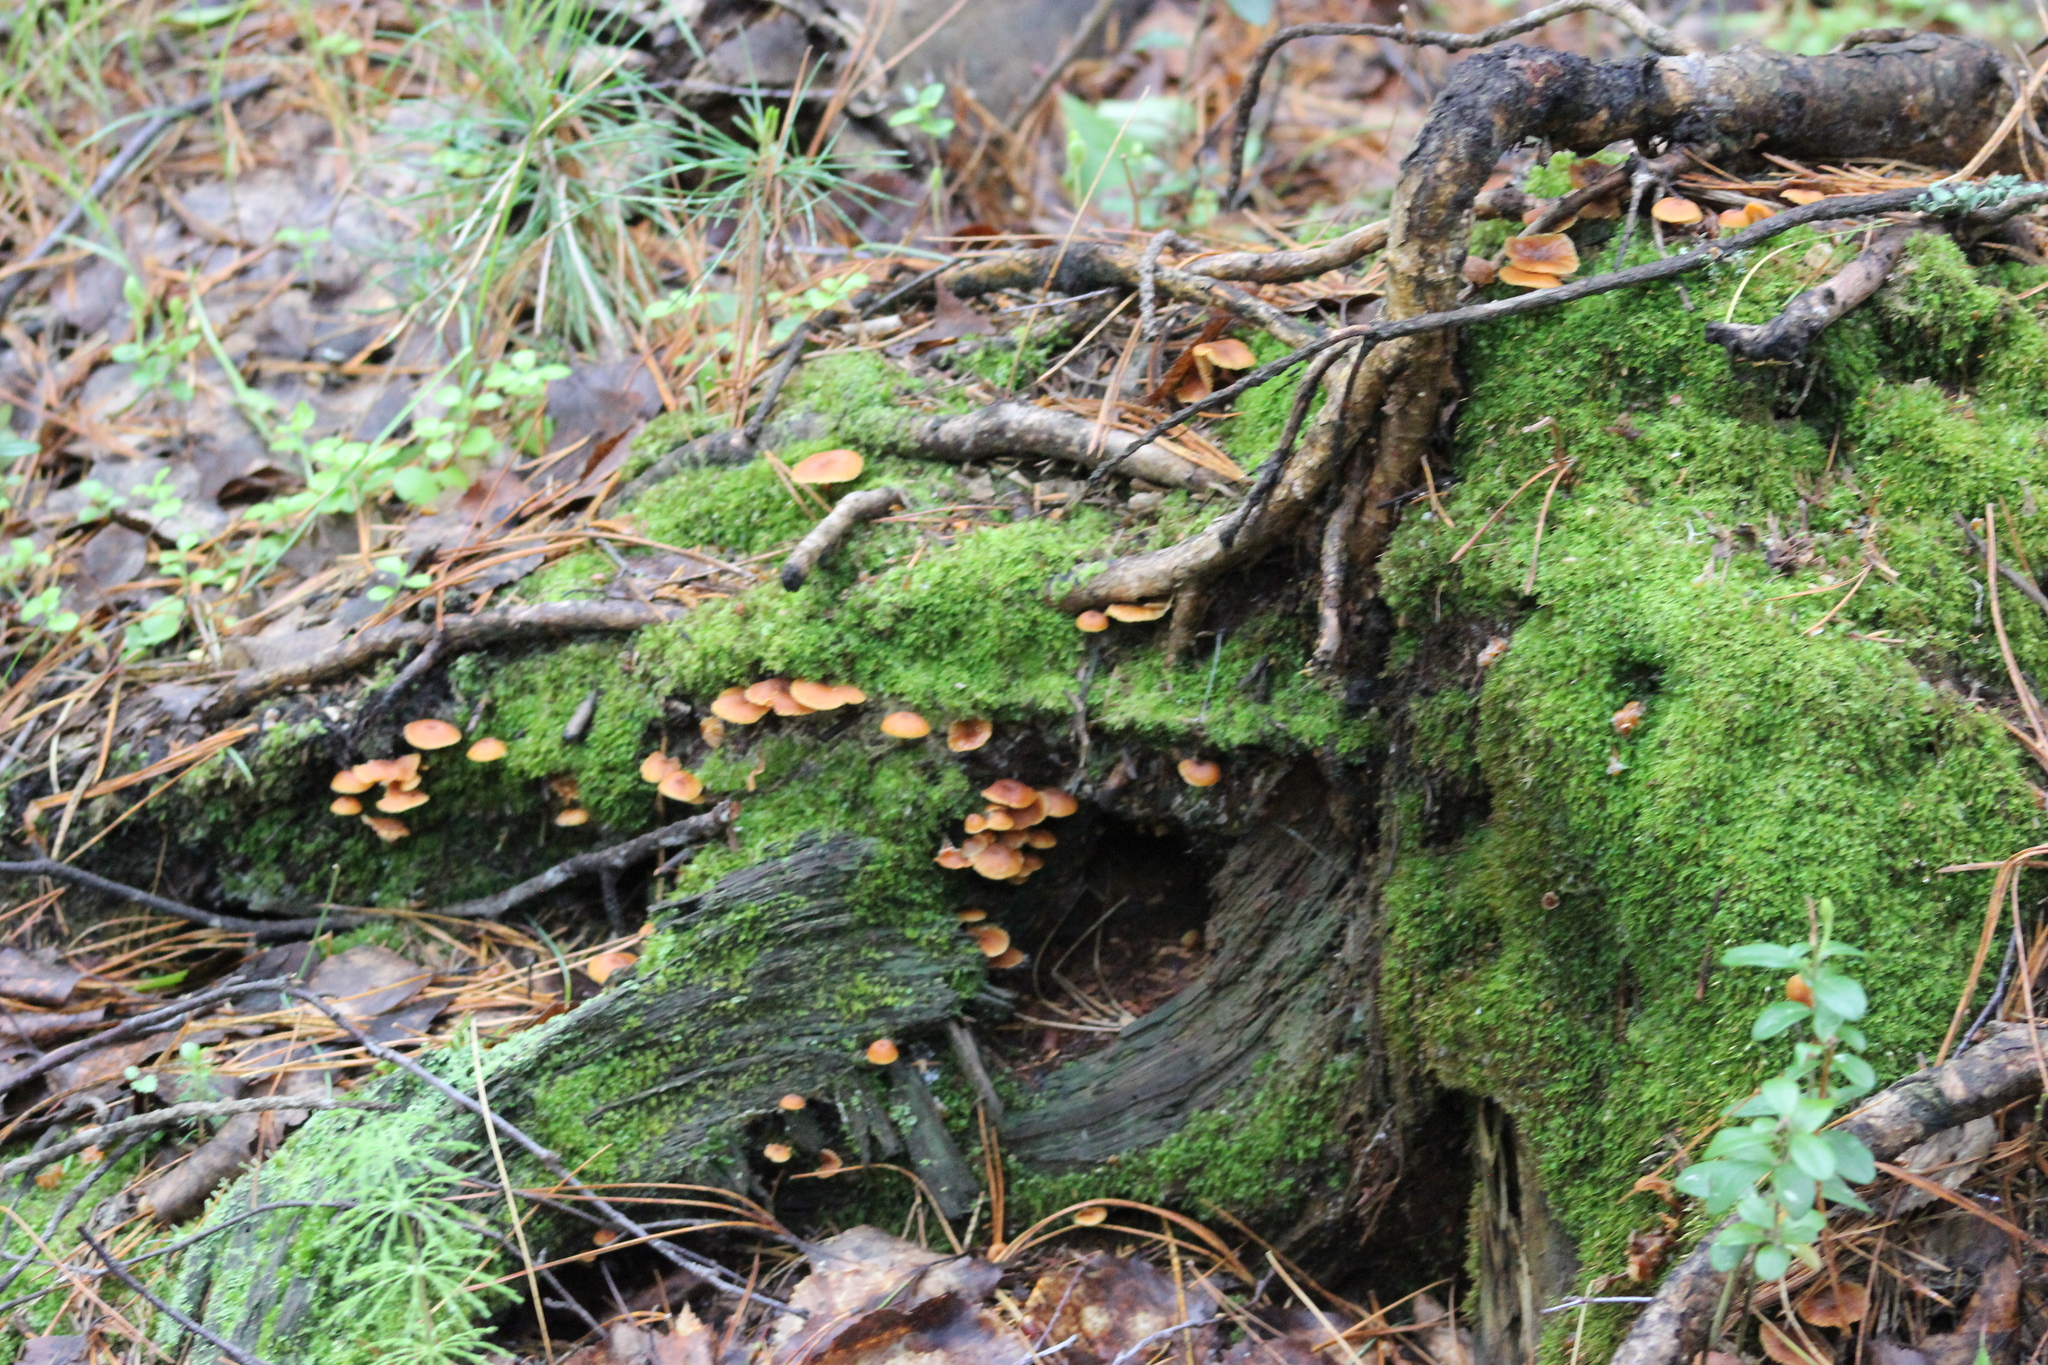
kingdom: Fungi
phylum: Basidiomycota
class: Agaricomycetes
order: Agaricales
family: Mycenaceae
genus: Xeromphalina
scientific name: Xeromphalina campanella
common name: Pinewood gingertail
